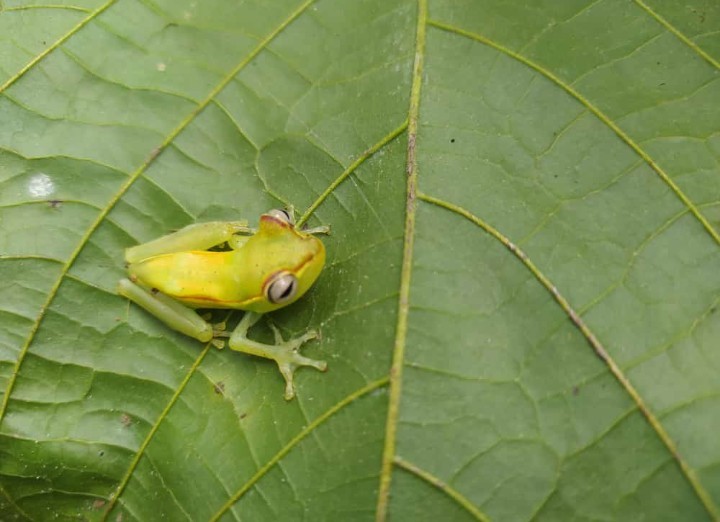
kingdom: Animalia
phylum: Chordata
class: Amphibia
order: Anura
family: Hylidae
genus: Boana
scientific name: Boana pellucens
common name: Palmar treefrog
